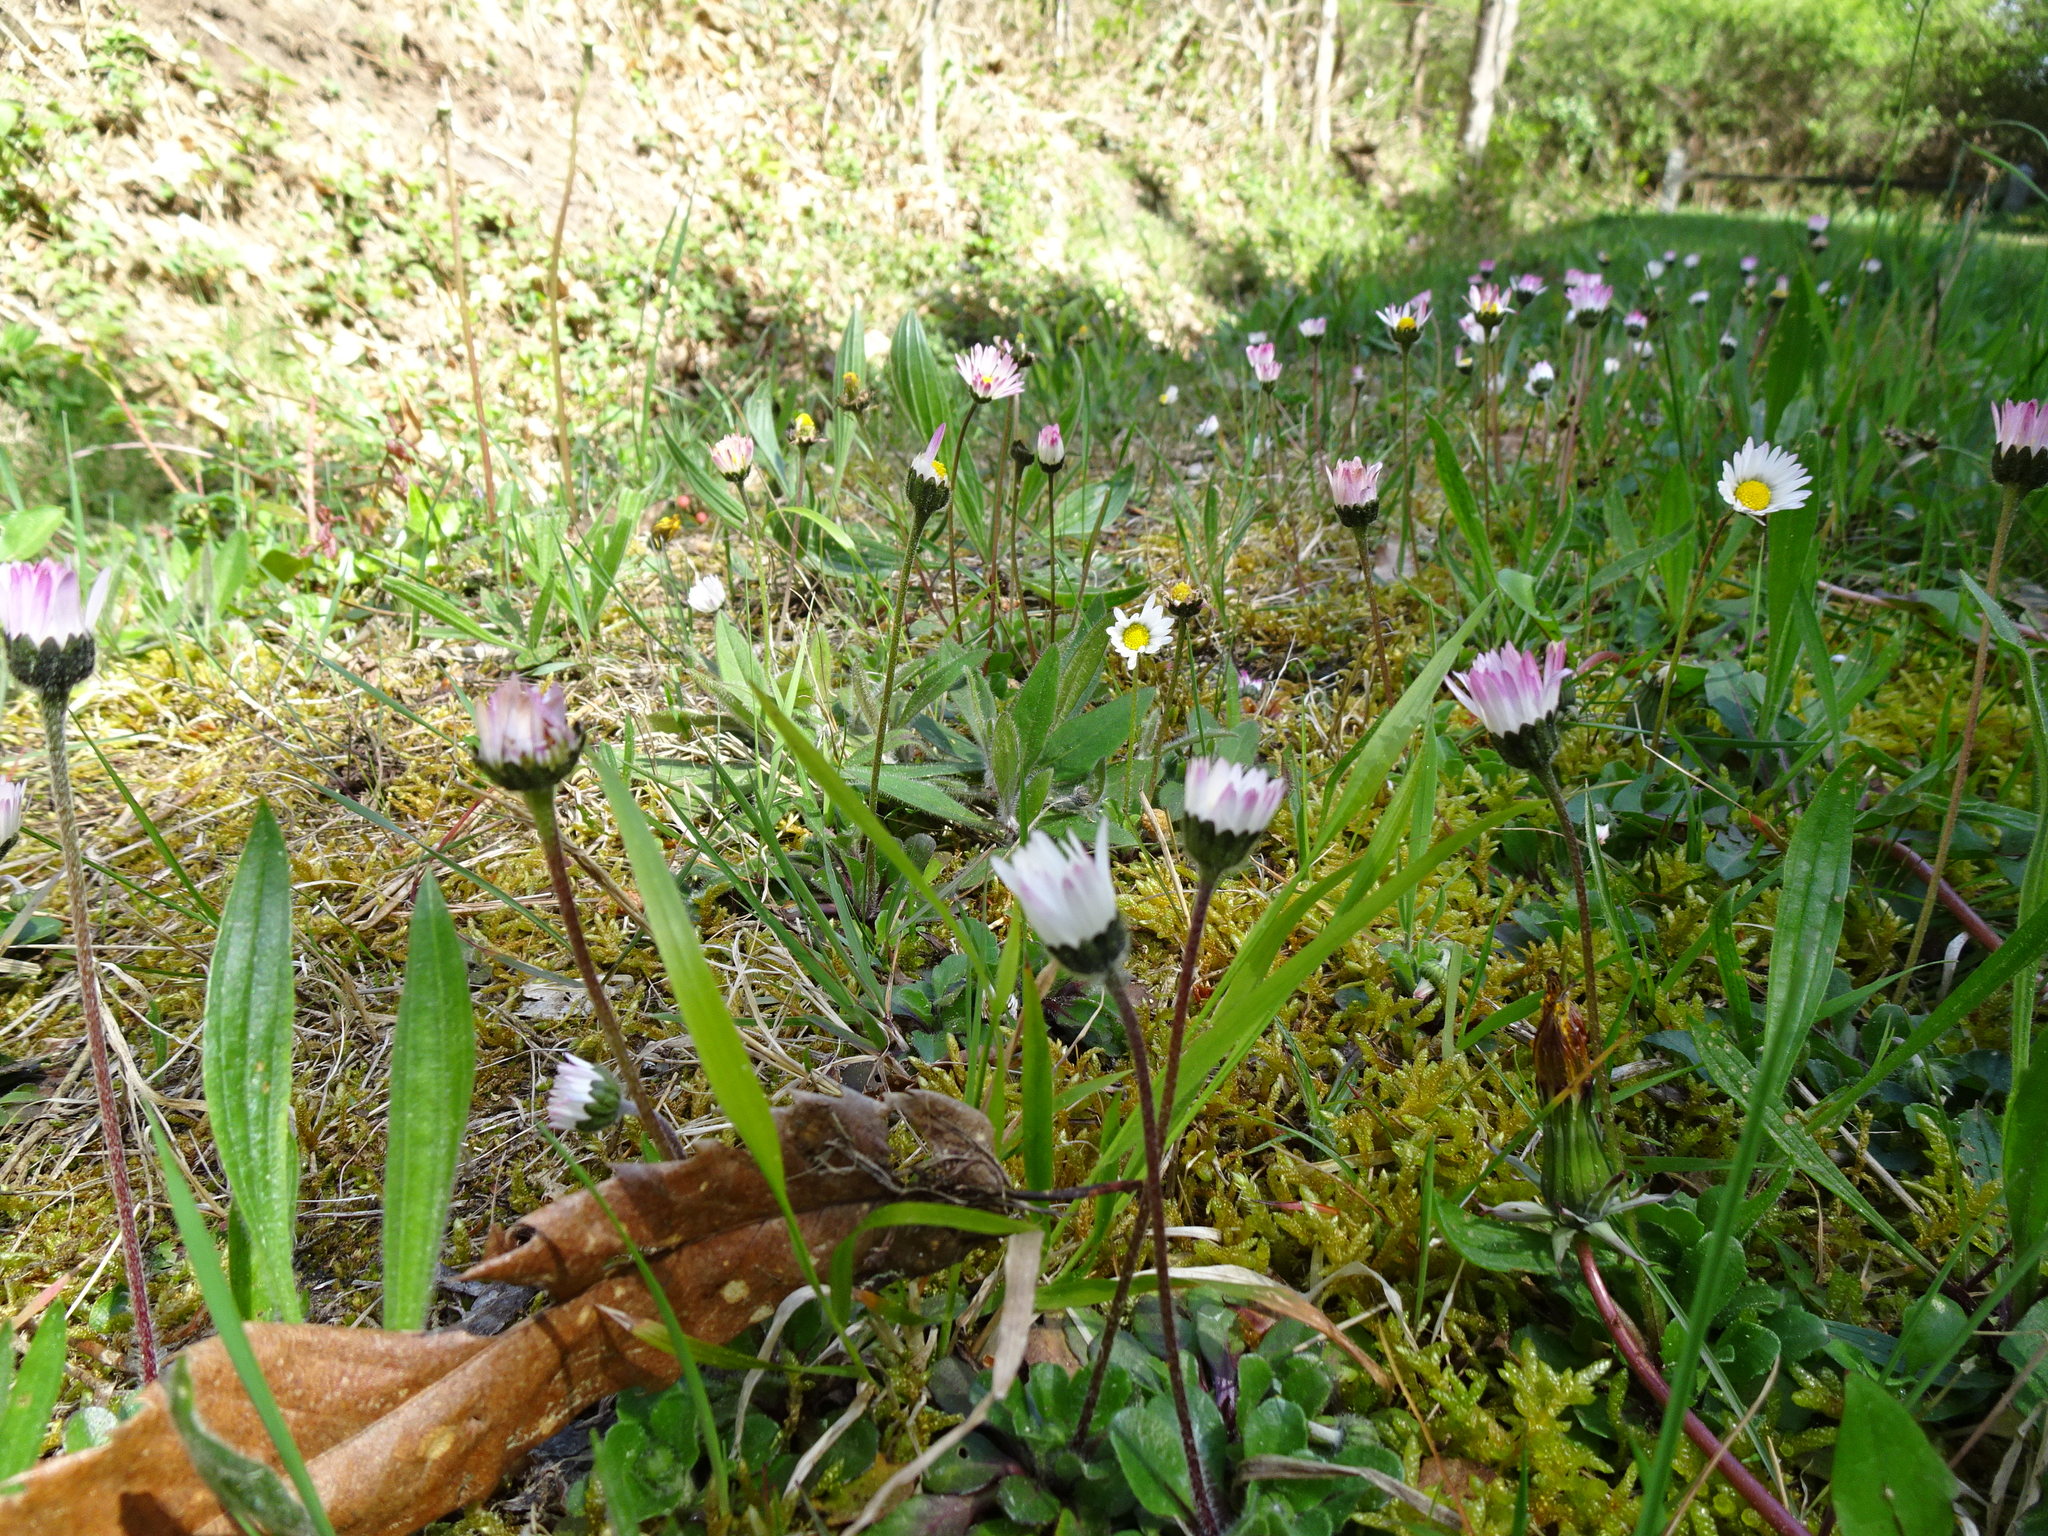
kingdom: Plantae
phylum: Tracheophyta
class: Magnoliopsida
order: Asterales
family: Asteraceae
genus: Bellis
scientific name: Bellis perennis
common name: Lawndaisy
